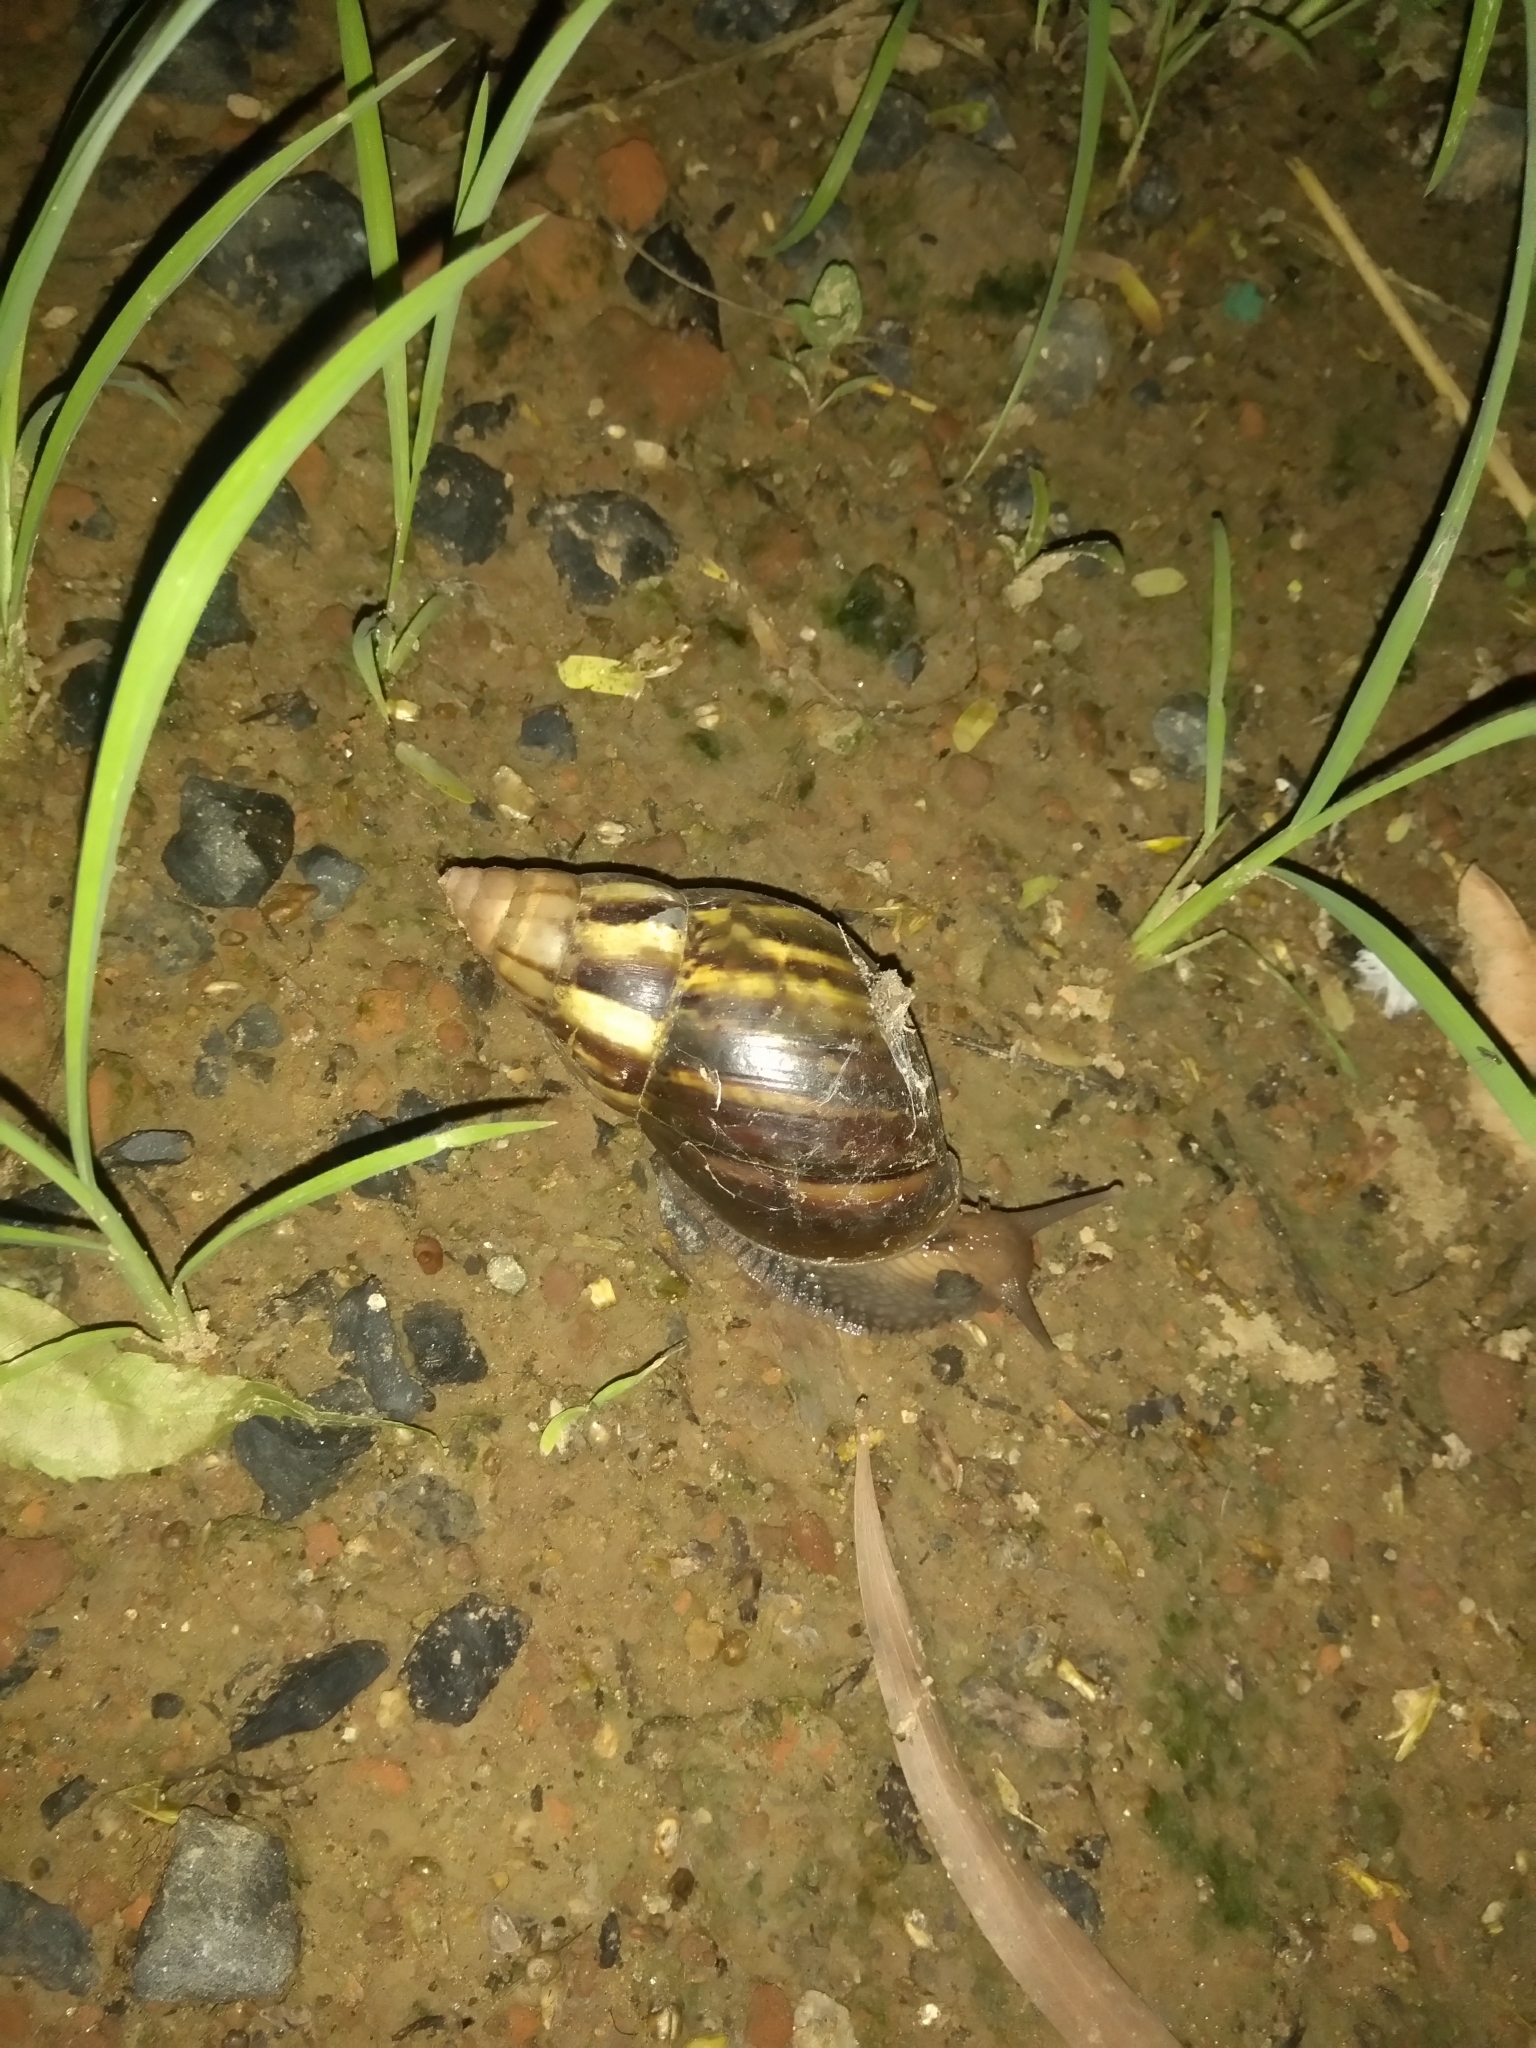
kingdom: Animalia
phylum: Mollusca
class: Gastropoda
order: Stylommatophora
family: Achatinidae
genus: Lissachatina
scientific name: Lissachatina fulica
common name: Giant african snail
